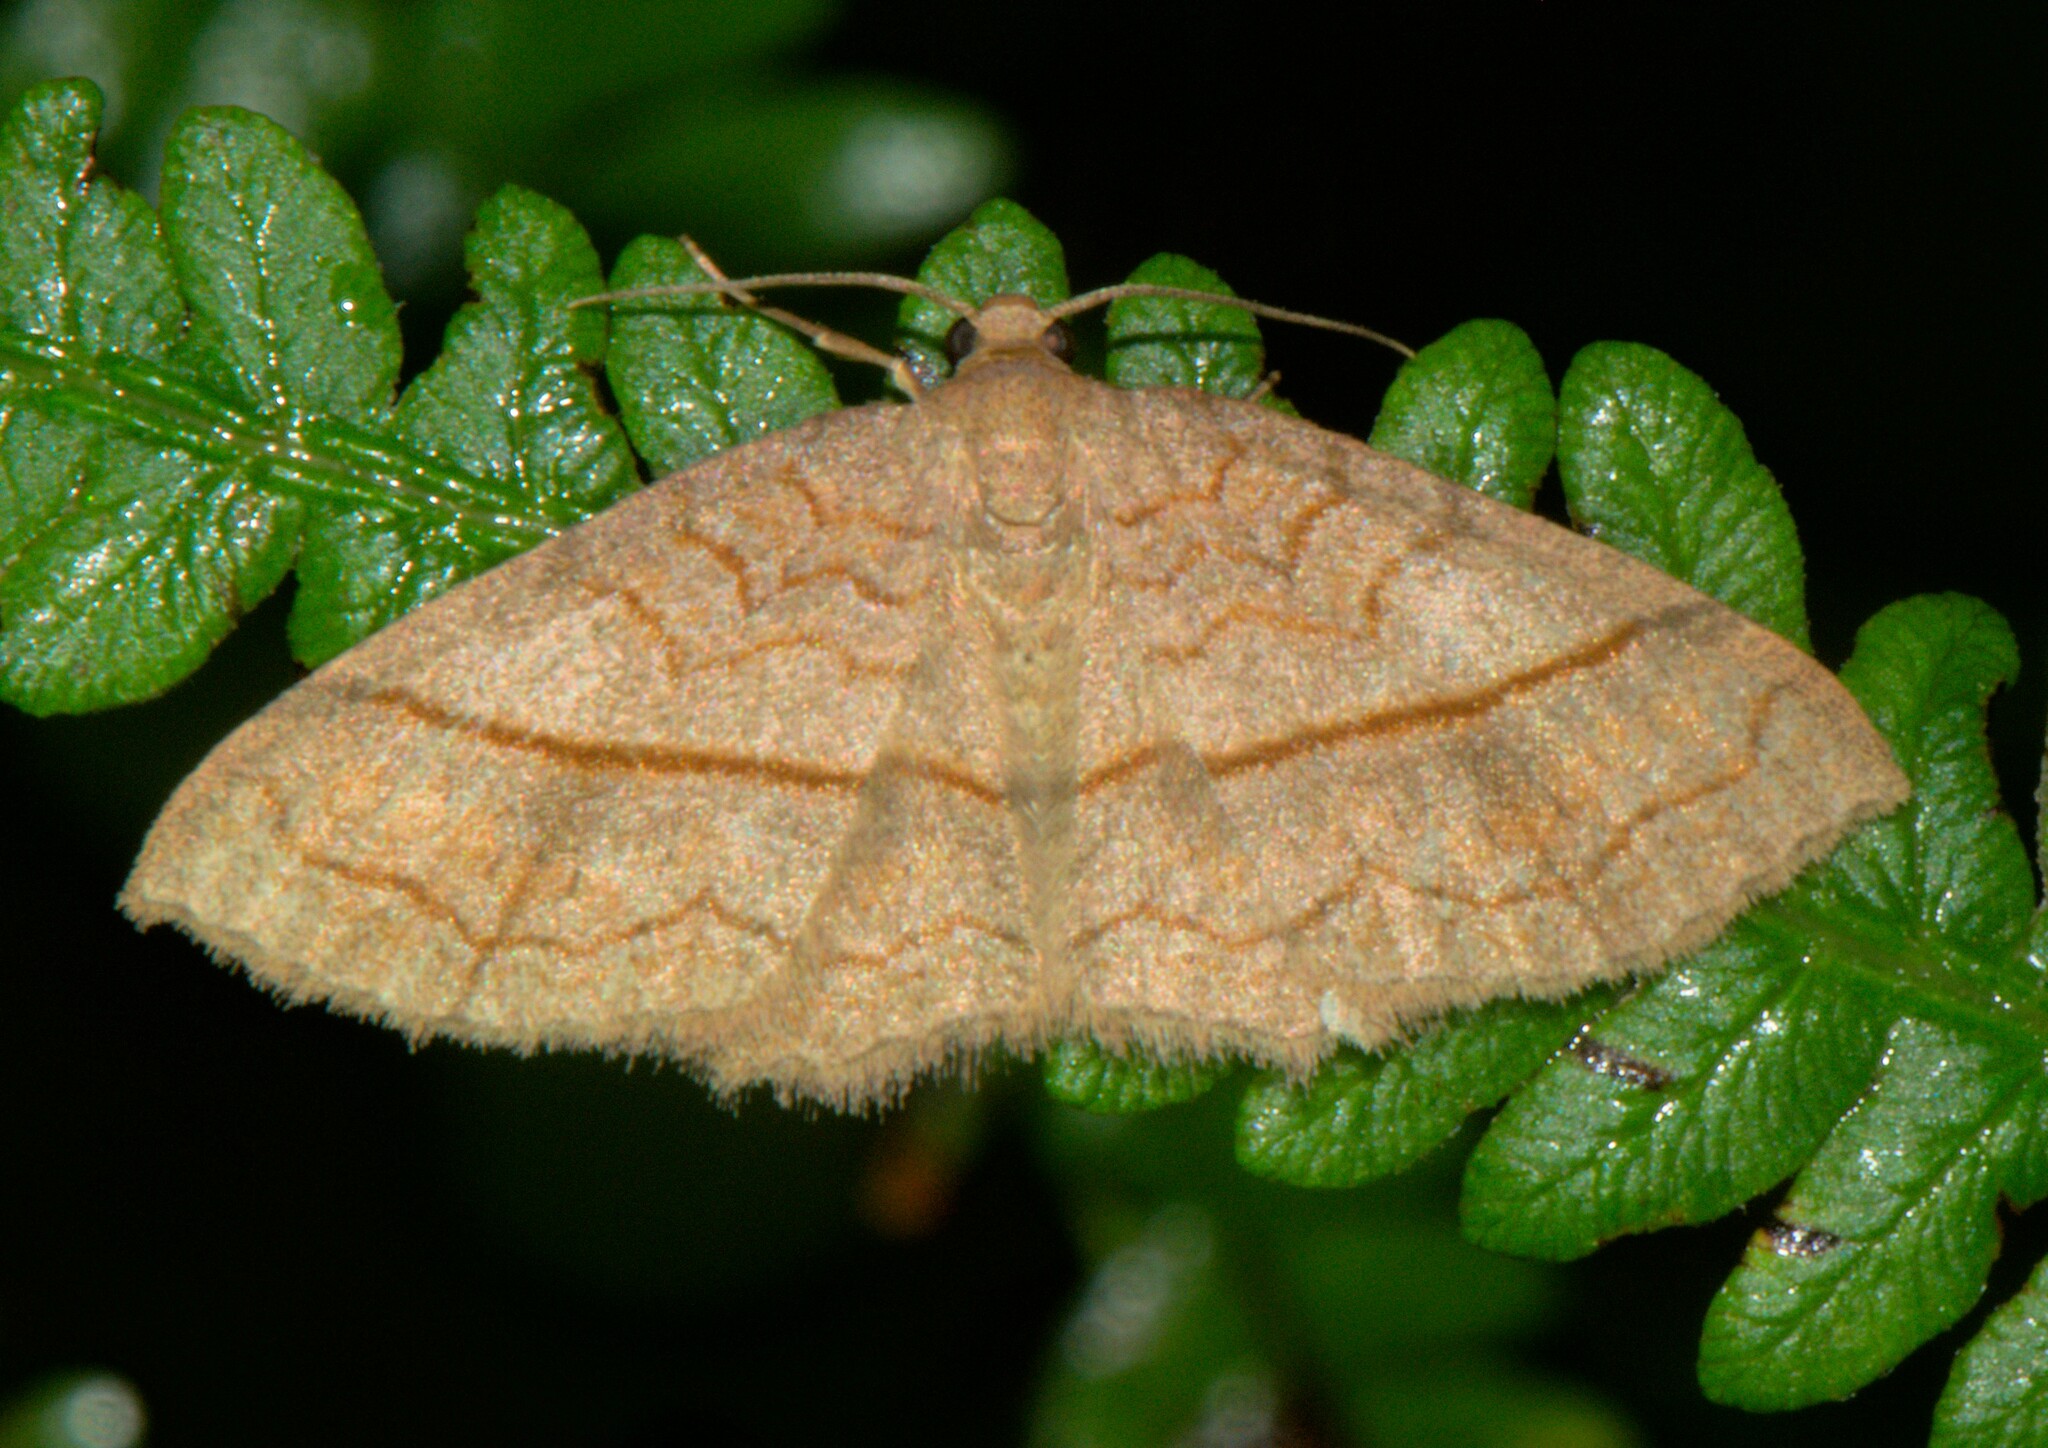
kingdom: Animalia
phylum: Arthropoda
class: Insecta
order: Lepidoptera
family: Geometridae
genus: Hydrelia
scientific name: Hydrelia sericea
